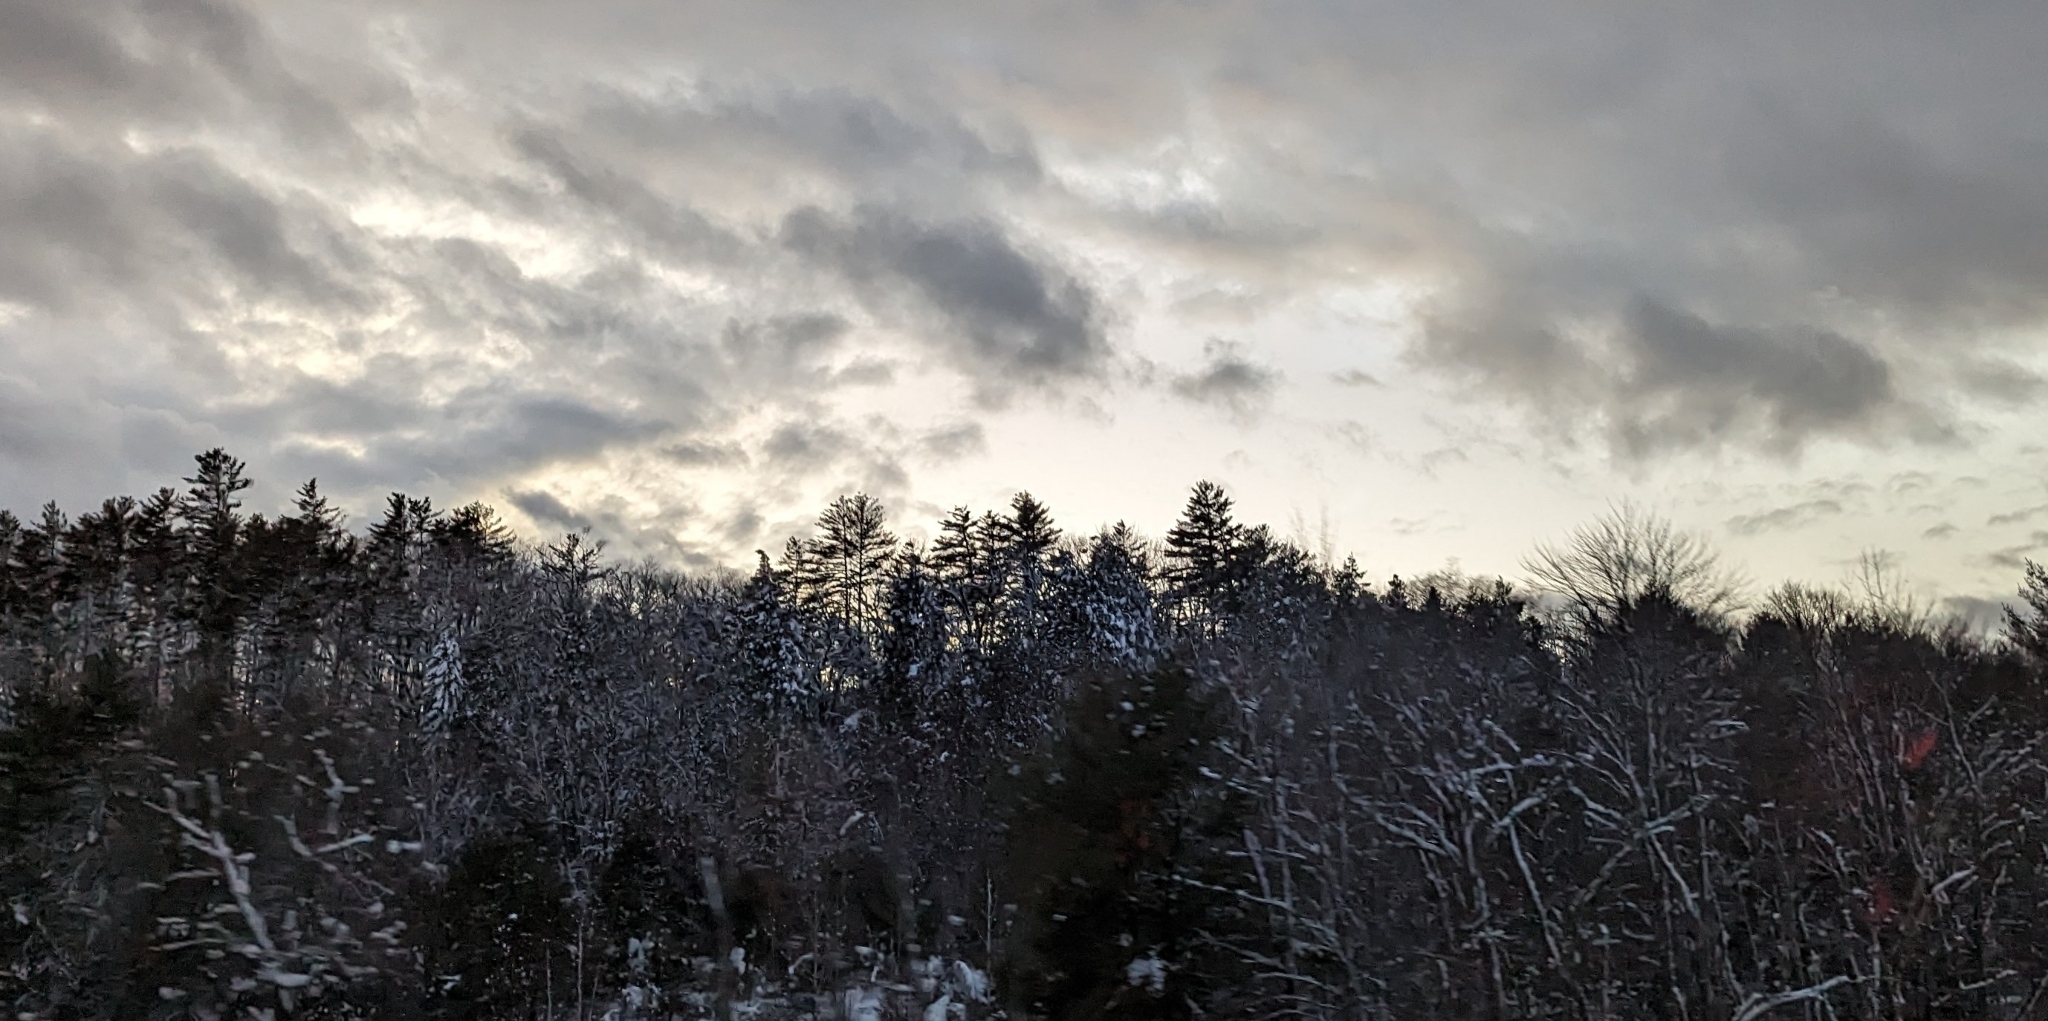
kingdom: Plantae
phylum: Tracheophyta
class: Pinopsida
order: Pinales
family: Pinaceae
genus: Pinus
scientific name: Pinus strobus
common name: Weymouth pine
